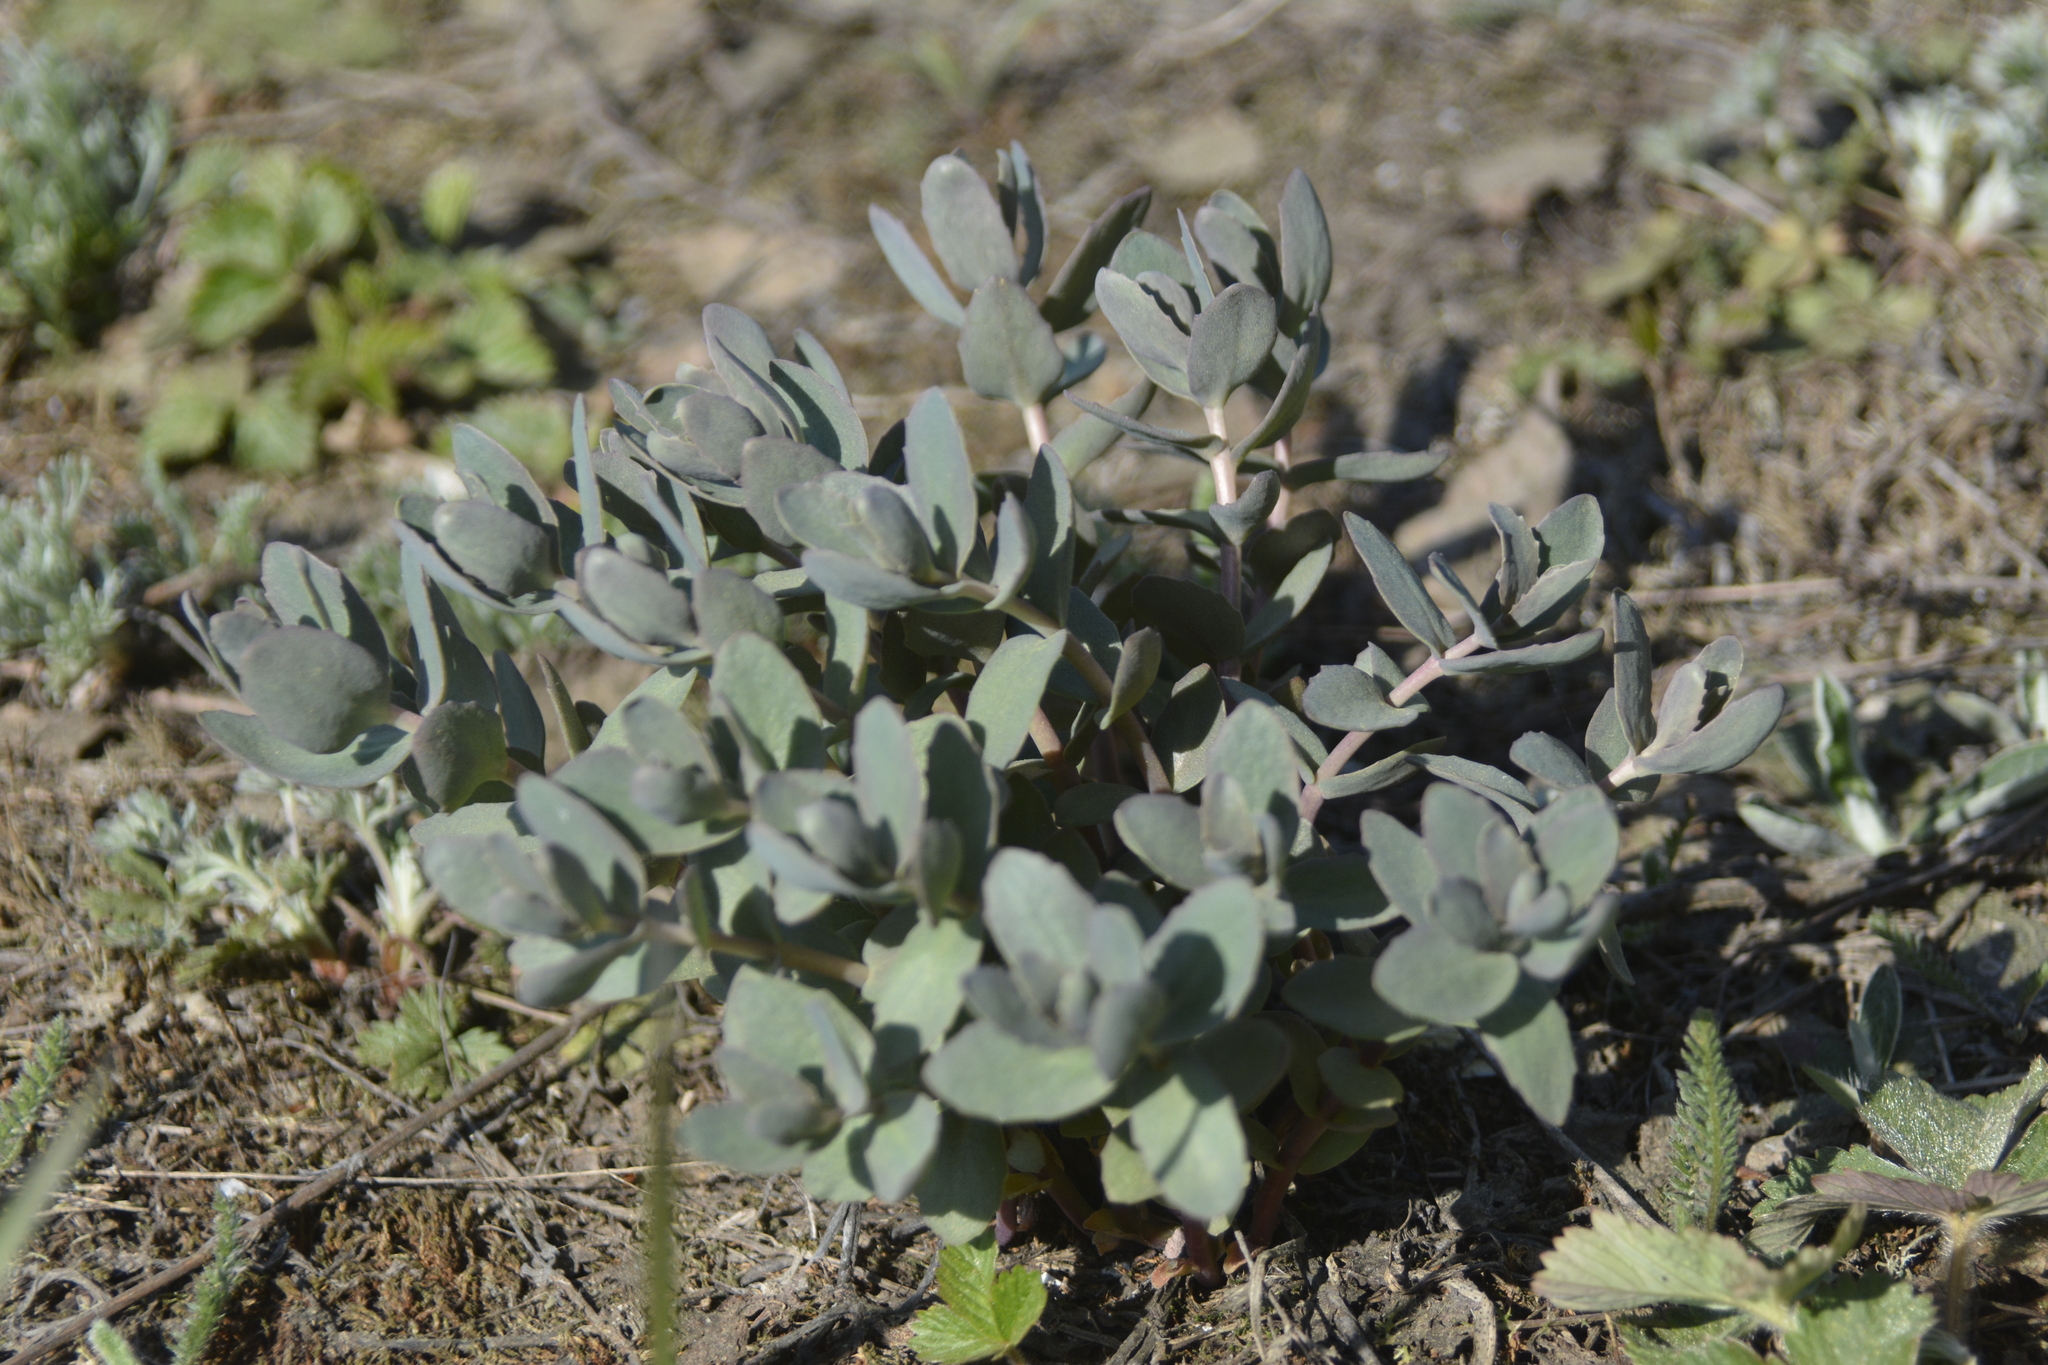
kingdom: Plantae
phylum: Tracheophyta
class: Magnoliopsida
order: Saxifragales
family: Crassulaceae
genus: Hylotelephium
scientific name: Hylotelephium maximum
